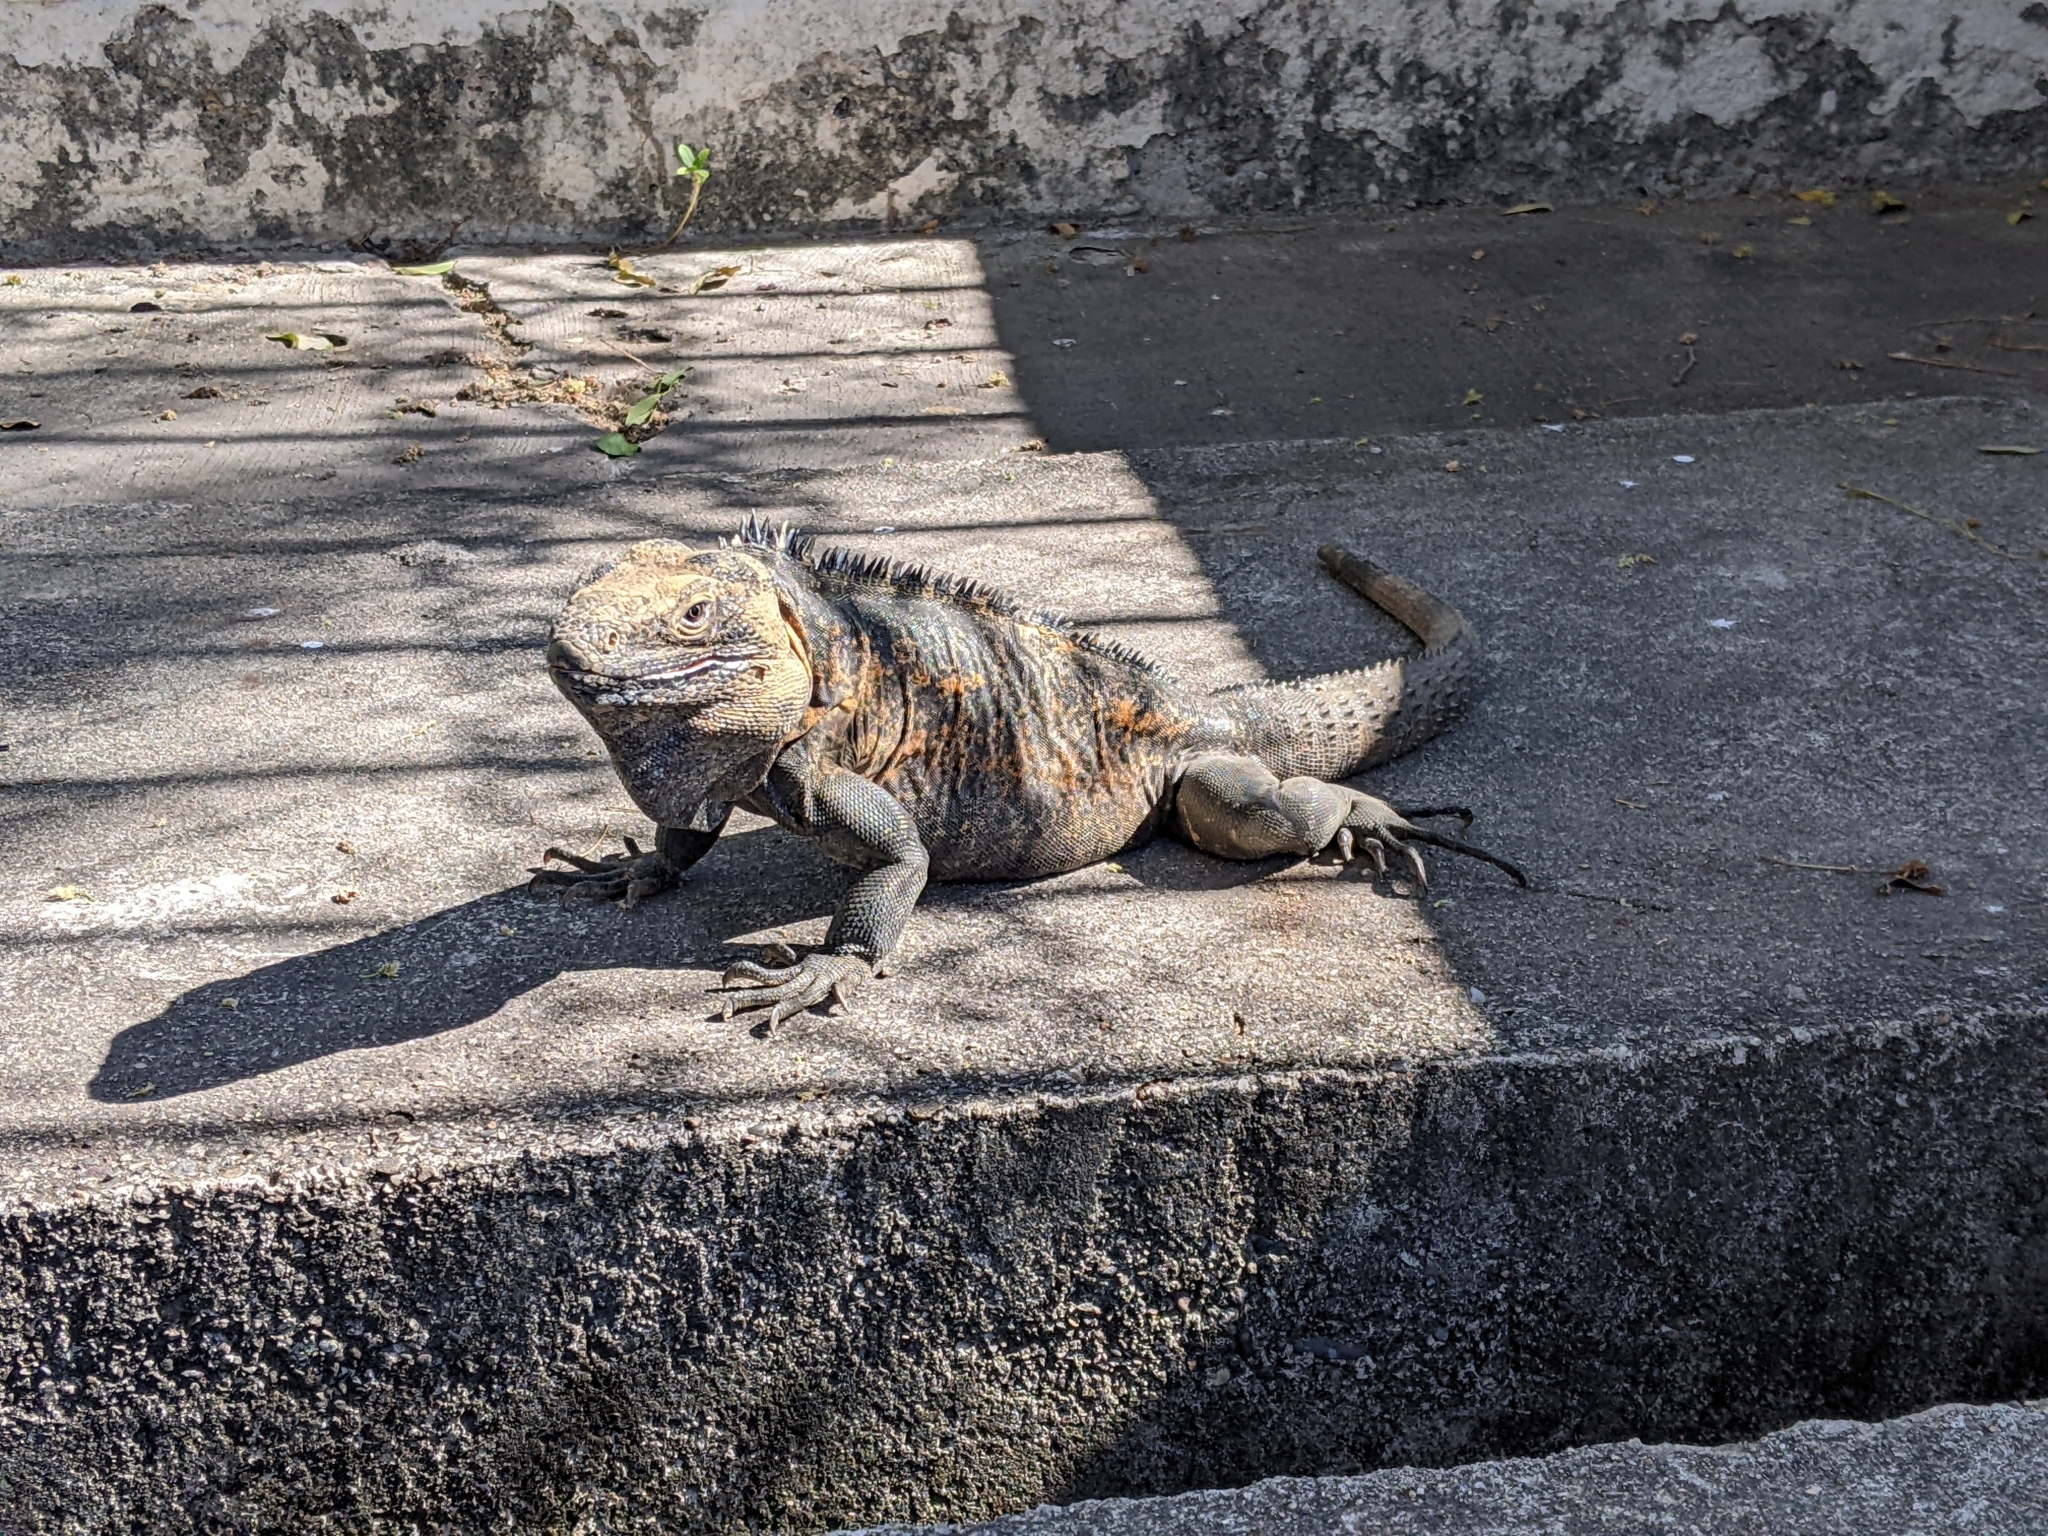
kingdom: Animalia
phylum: Chordata
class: Squamata
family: Iguanidae
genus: Ctenosaura
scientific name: Ctenosaura pectinata
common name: Guerreran spiny-tailed iguana
